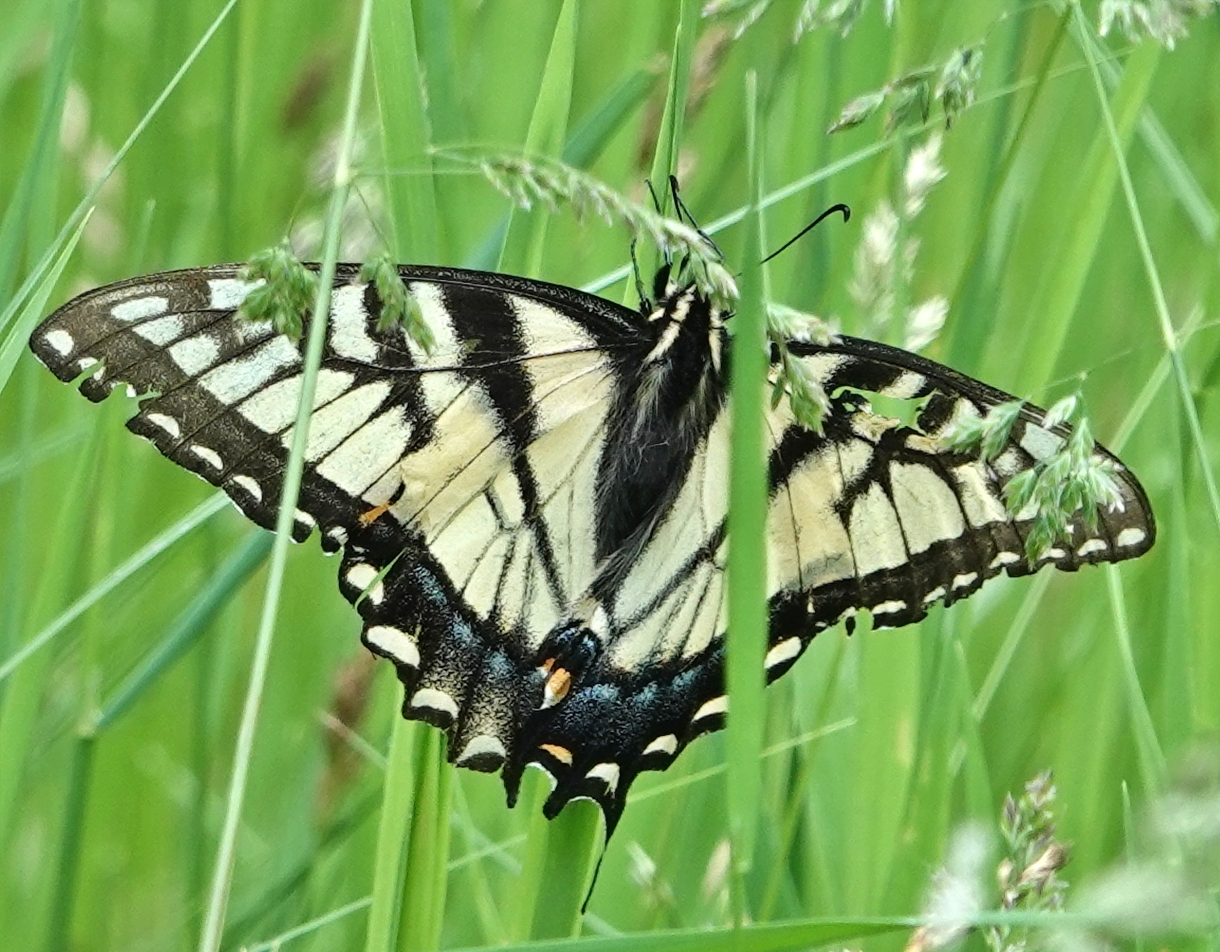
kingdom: Animalia
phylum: Arthropoda
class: Insecta
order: Lepidoptera
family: Papilionidae
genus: Papilio
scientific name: Papilio glaucus
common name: Tiger swallowtail
